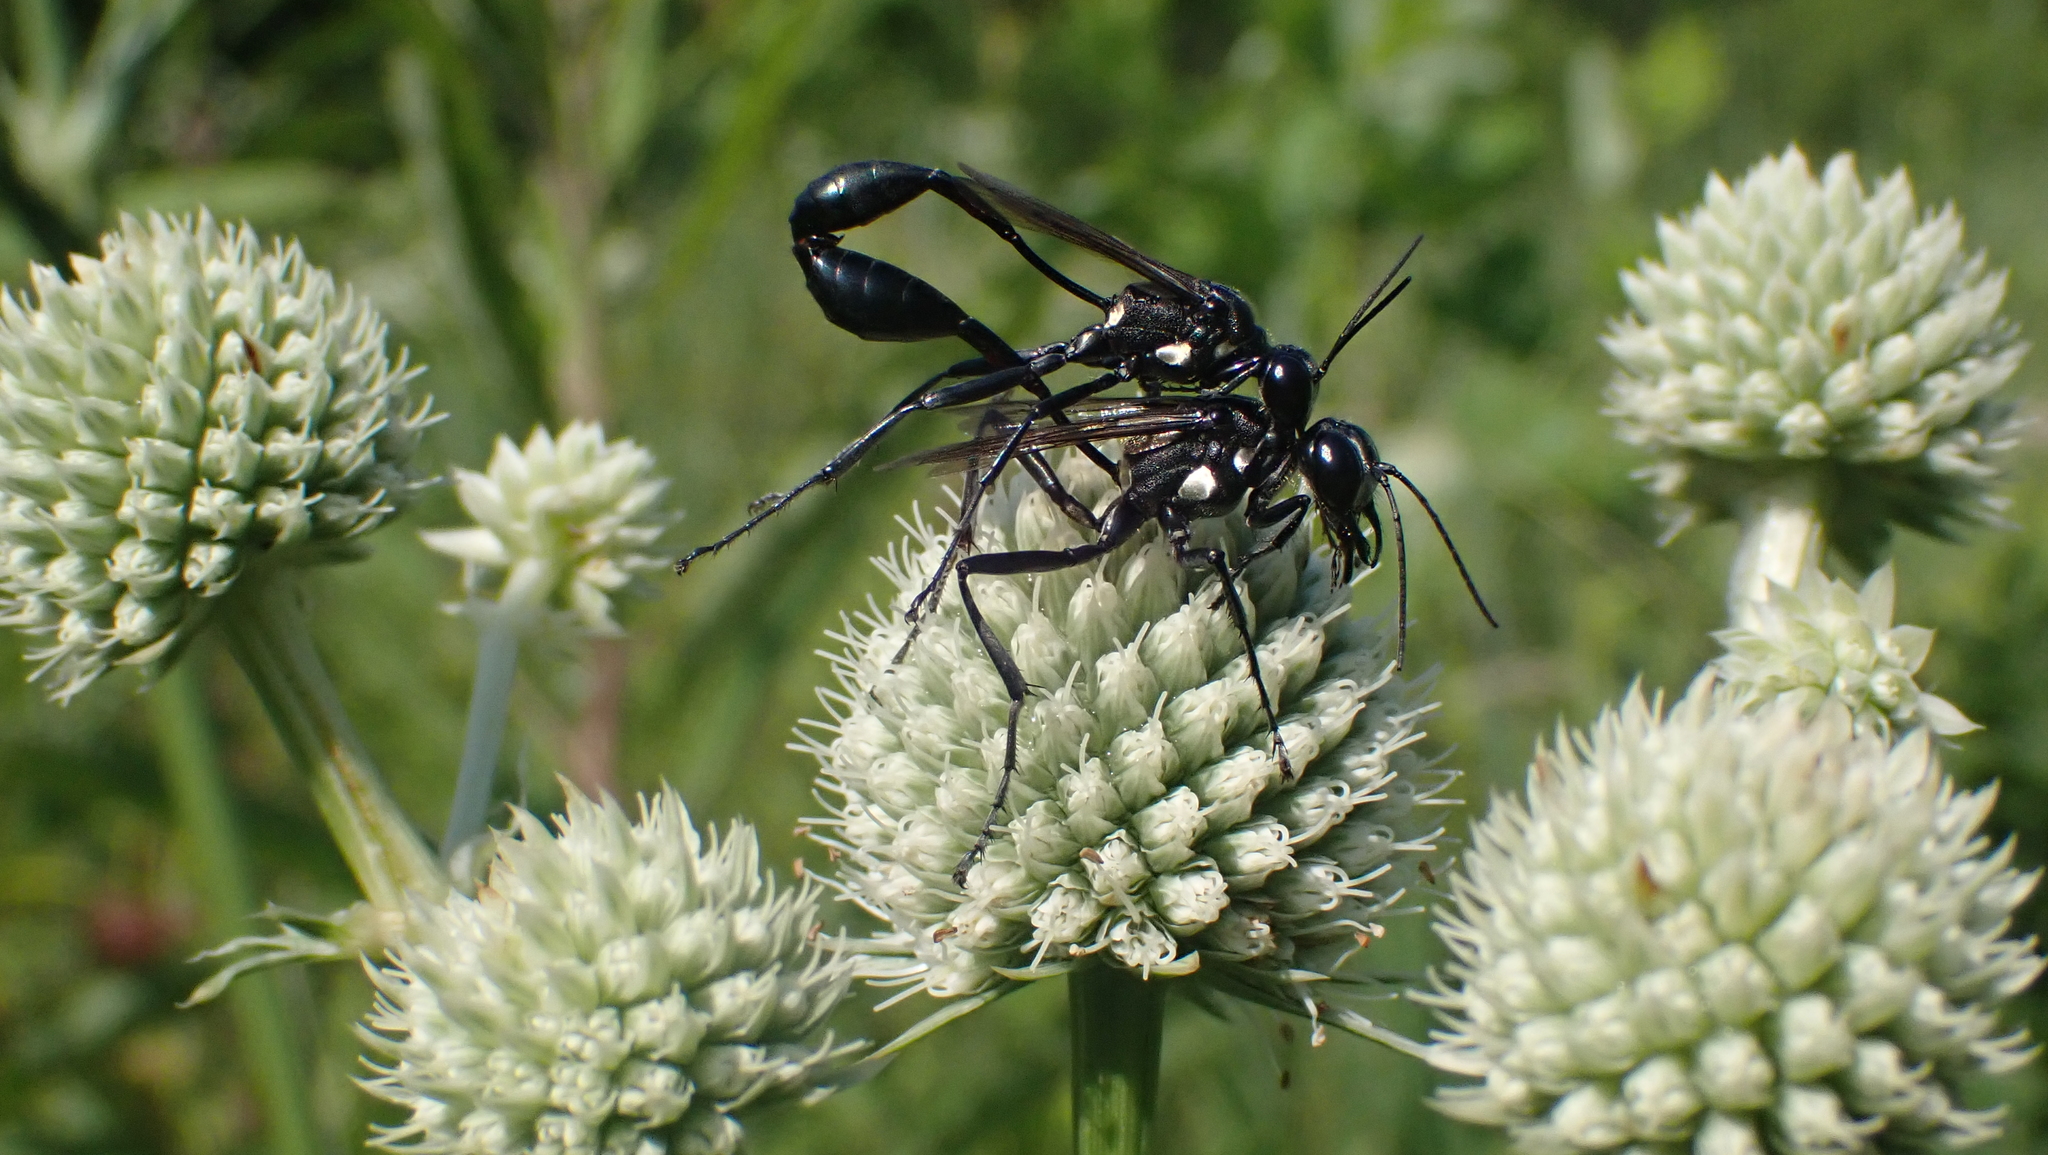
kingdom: Animalia
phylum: Arthropoda
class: Insecta
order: Hymenoptera
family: Sphecidae
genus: Eremnophila
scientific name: Eremnophila aureonotata
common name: Gold-marked thread-waisted wasp
